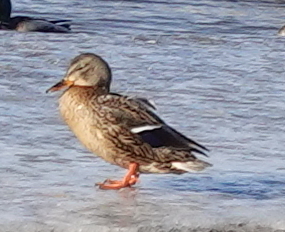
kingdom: Animalia
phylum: Chordata
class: Aves
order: Anseriformes
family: Anatidae
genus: Anas
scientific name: Anas platyrhynchos
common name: Mallard
